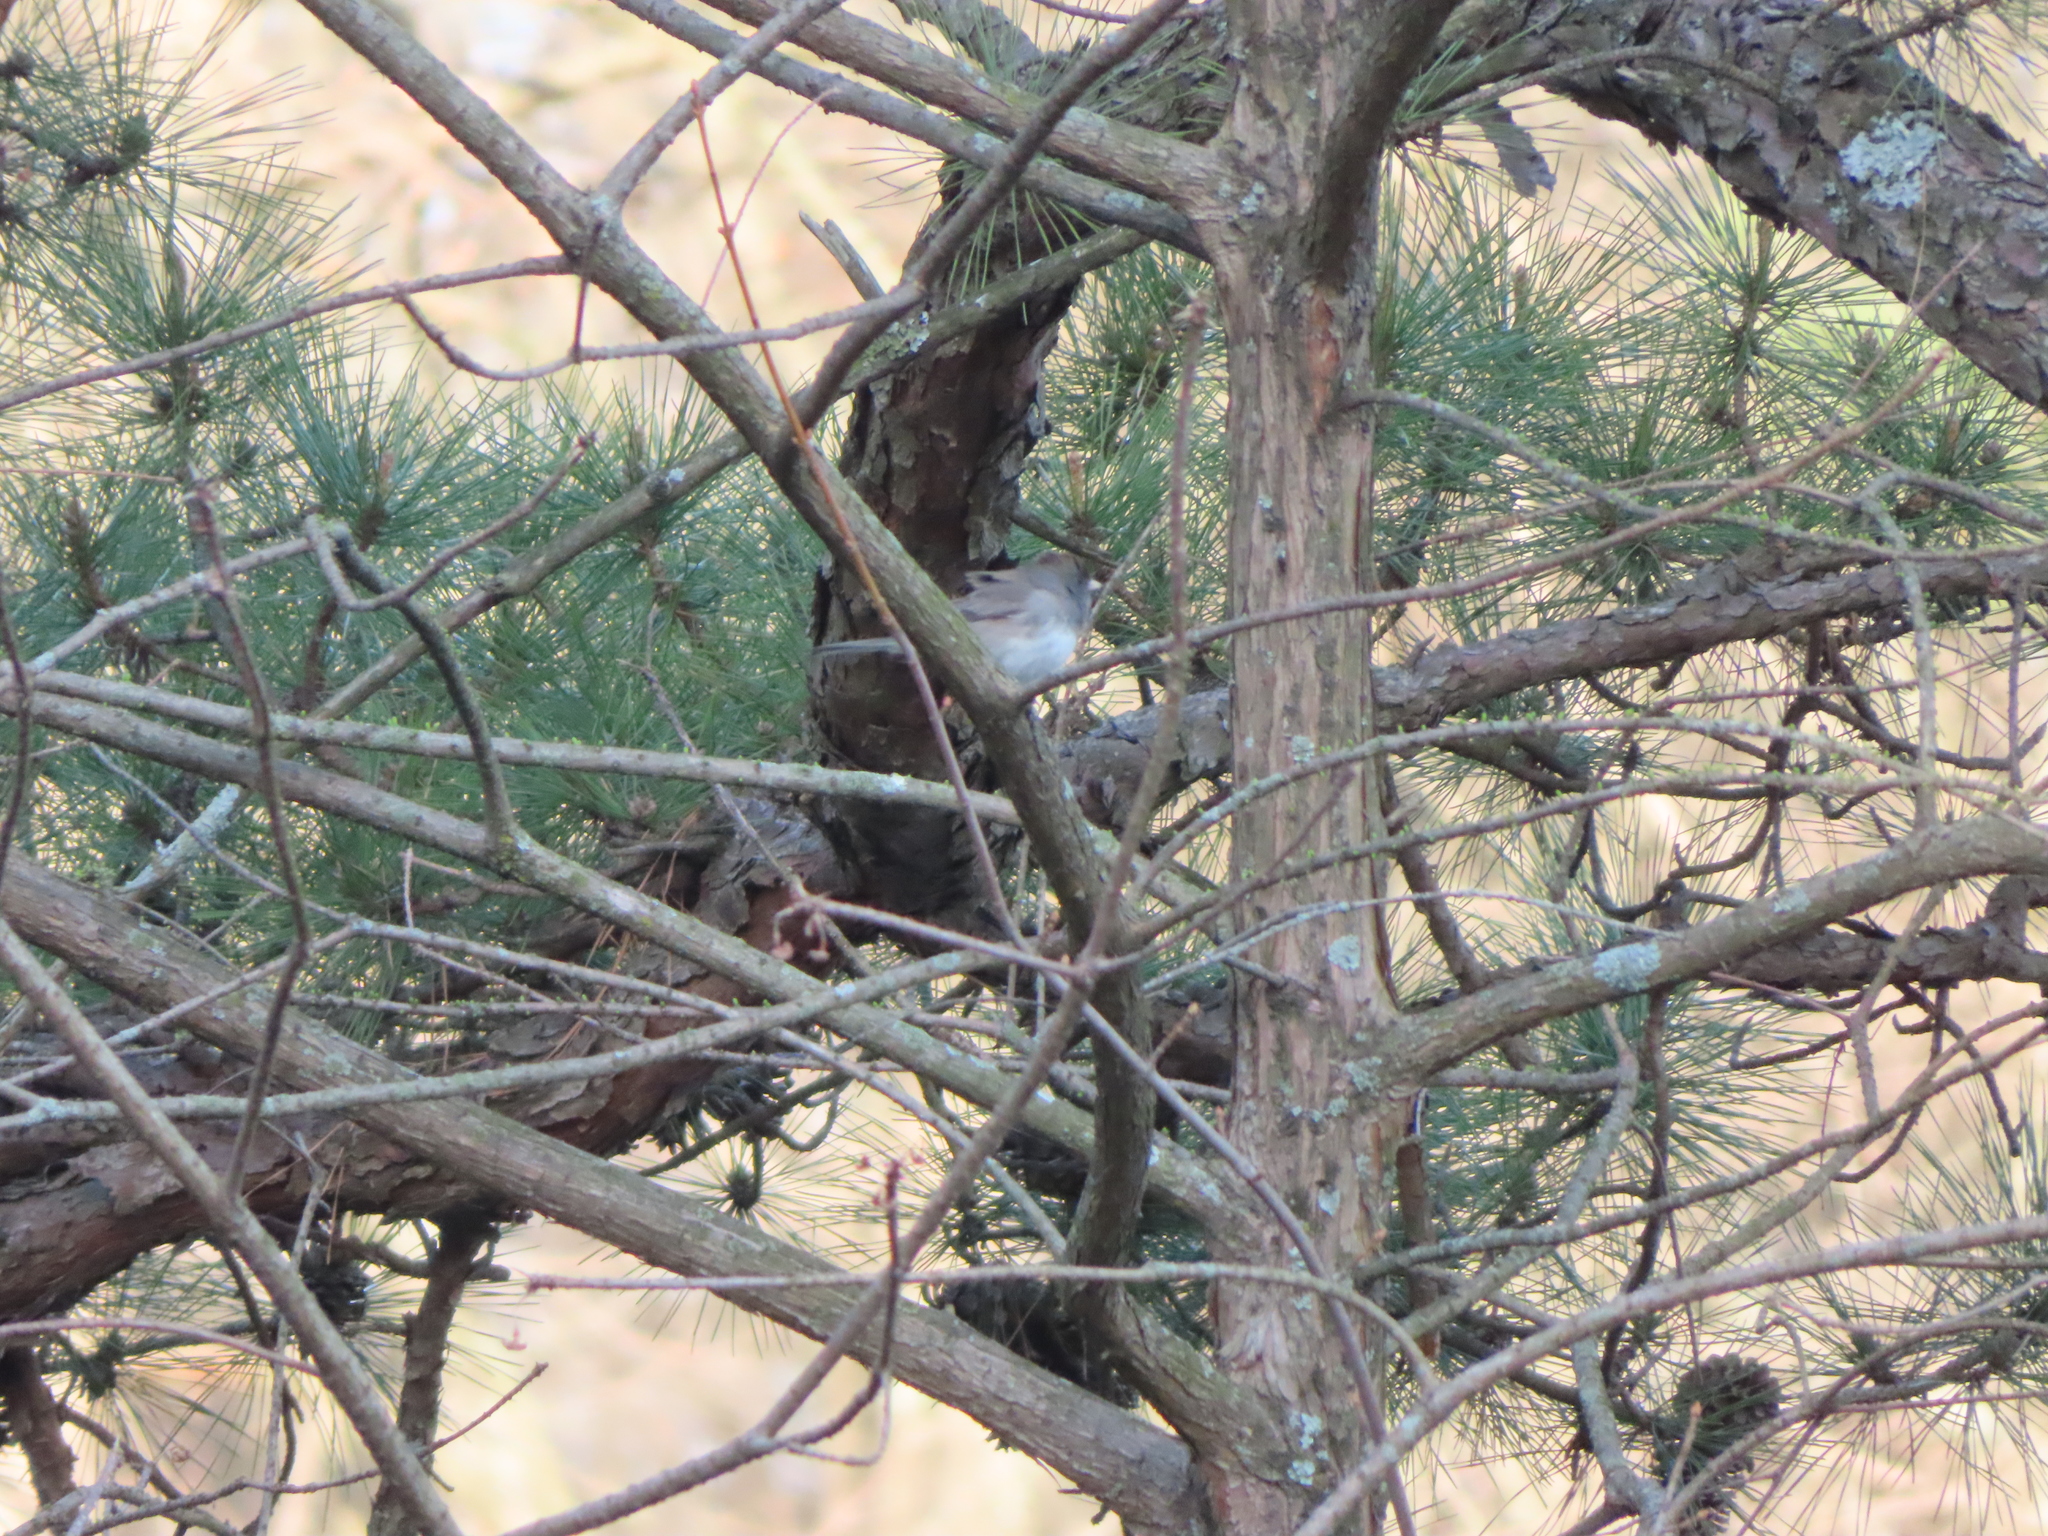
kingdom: Animalia
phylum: Chordata
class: Aves
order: Passeriformes
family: Passerellidae
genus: Junco
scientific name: Junco hyemalis
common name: Dark-eyed junco
